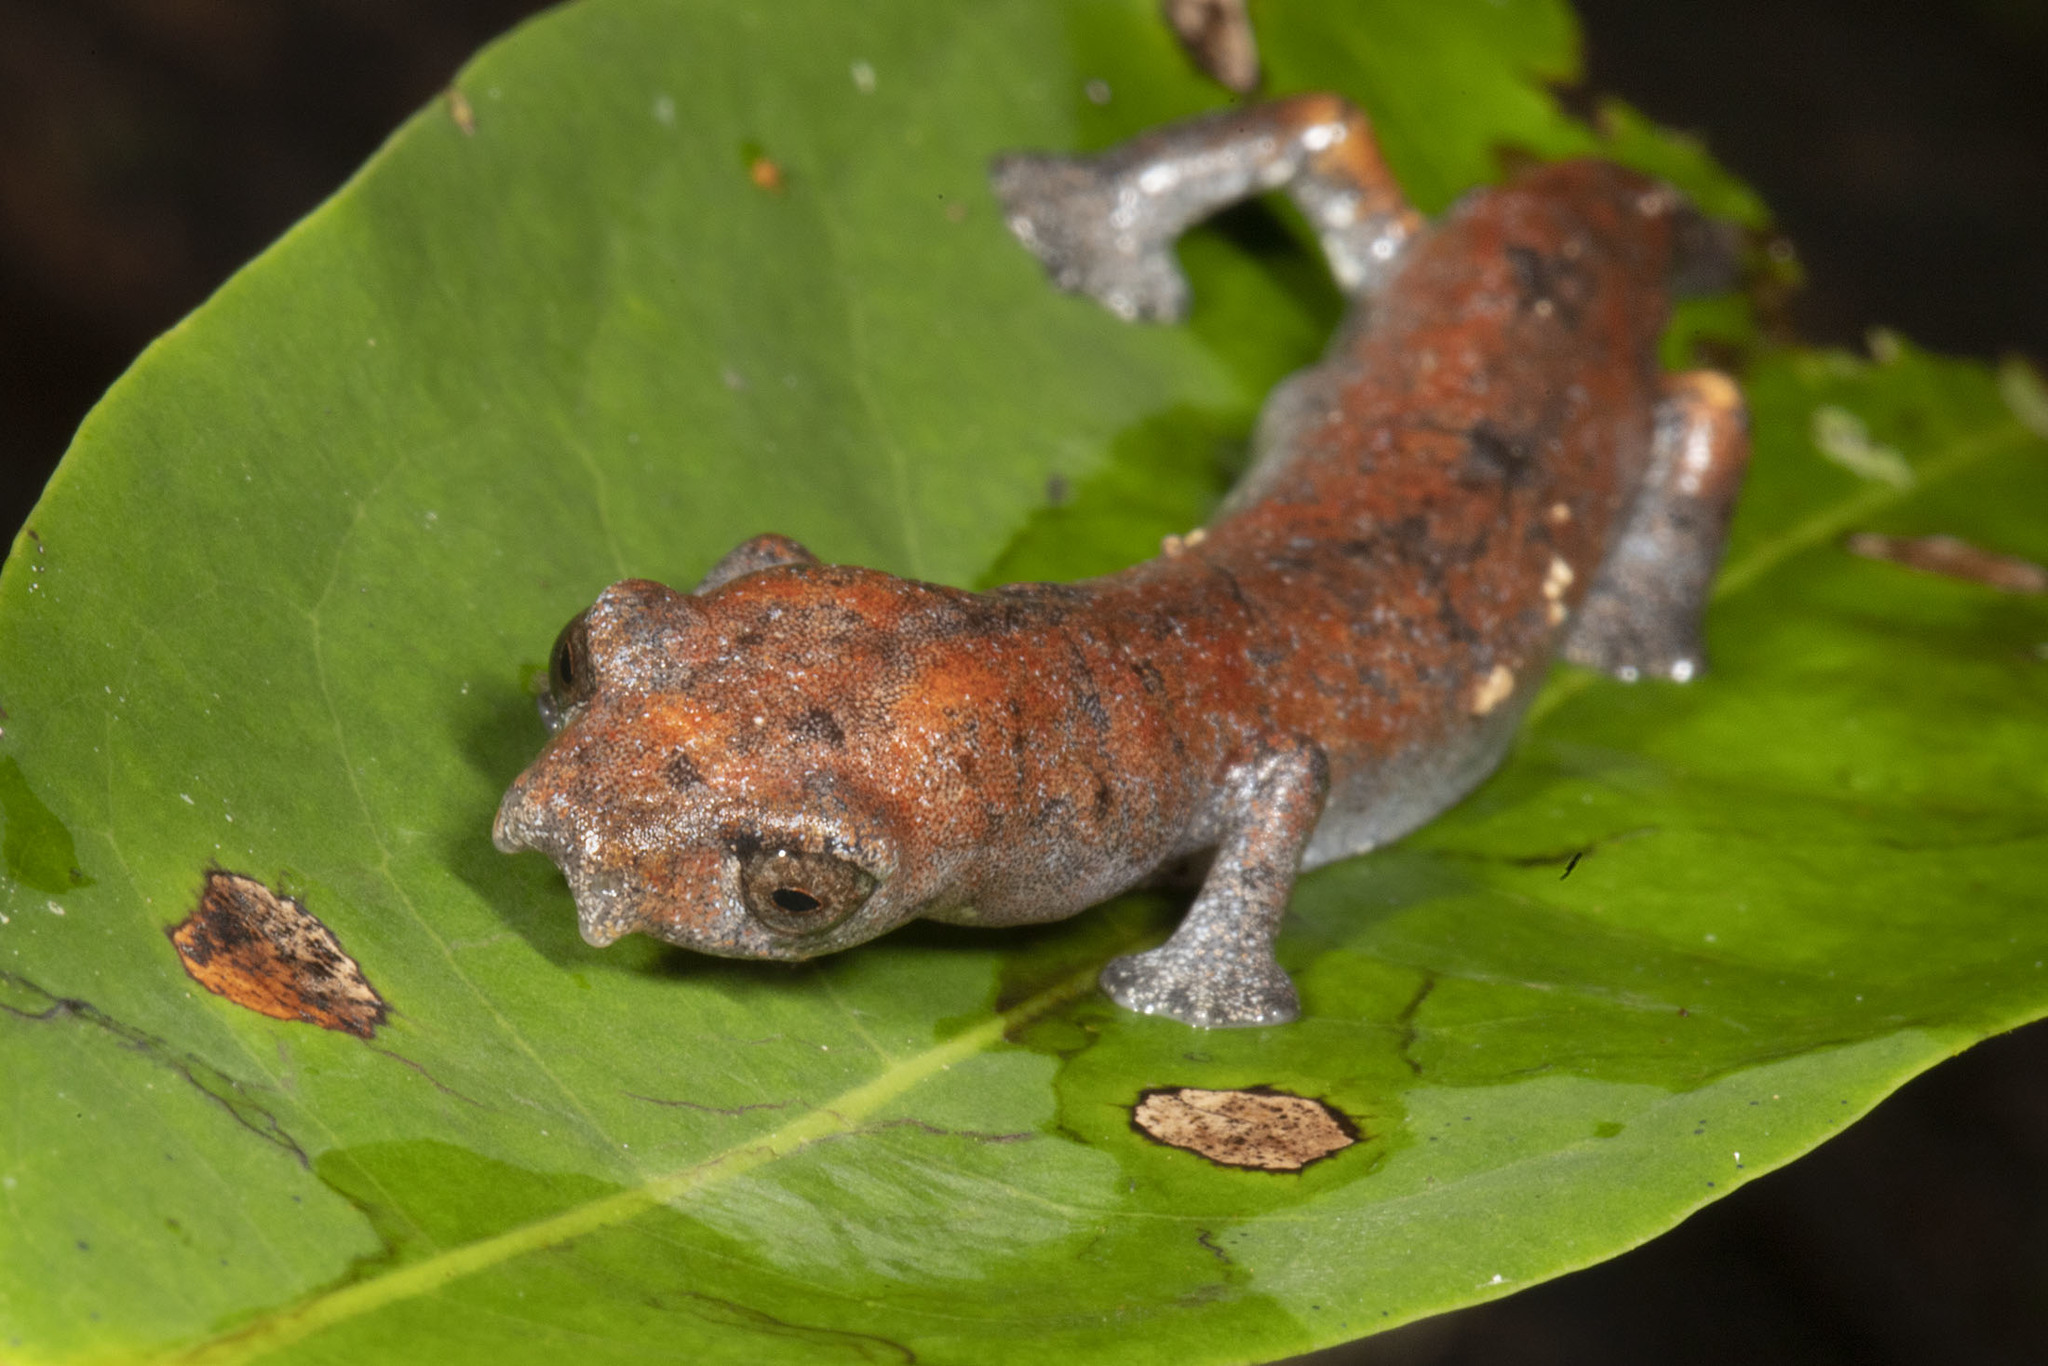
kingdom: Animalia
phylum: Chordata
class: Amphibia
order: Caudata
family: Plethodontidae
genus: Bolitoglossa
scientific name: Bolitoglossa peruviana
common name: Peru mushroomtongue salamander
